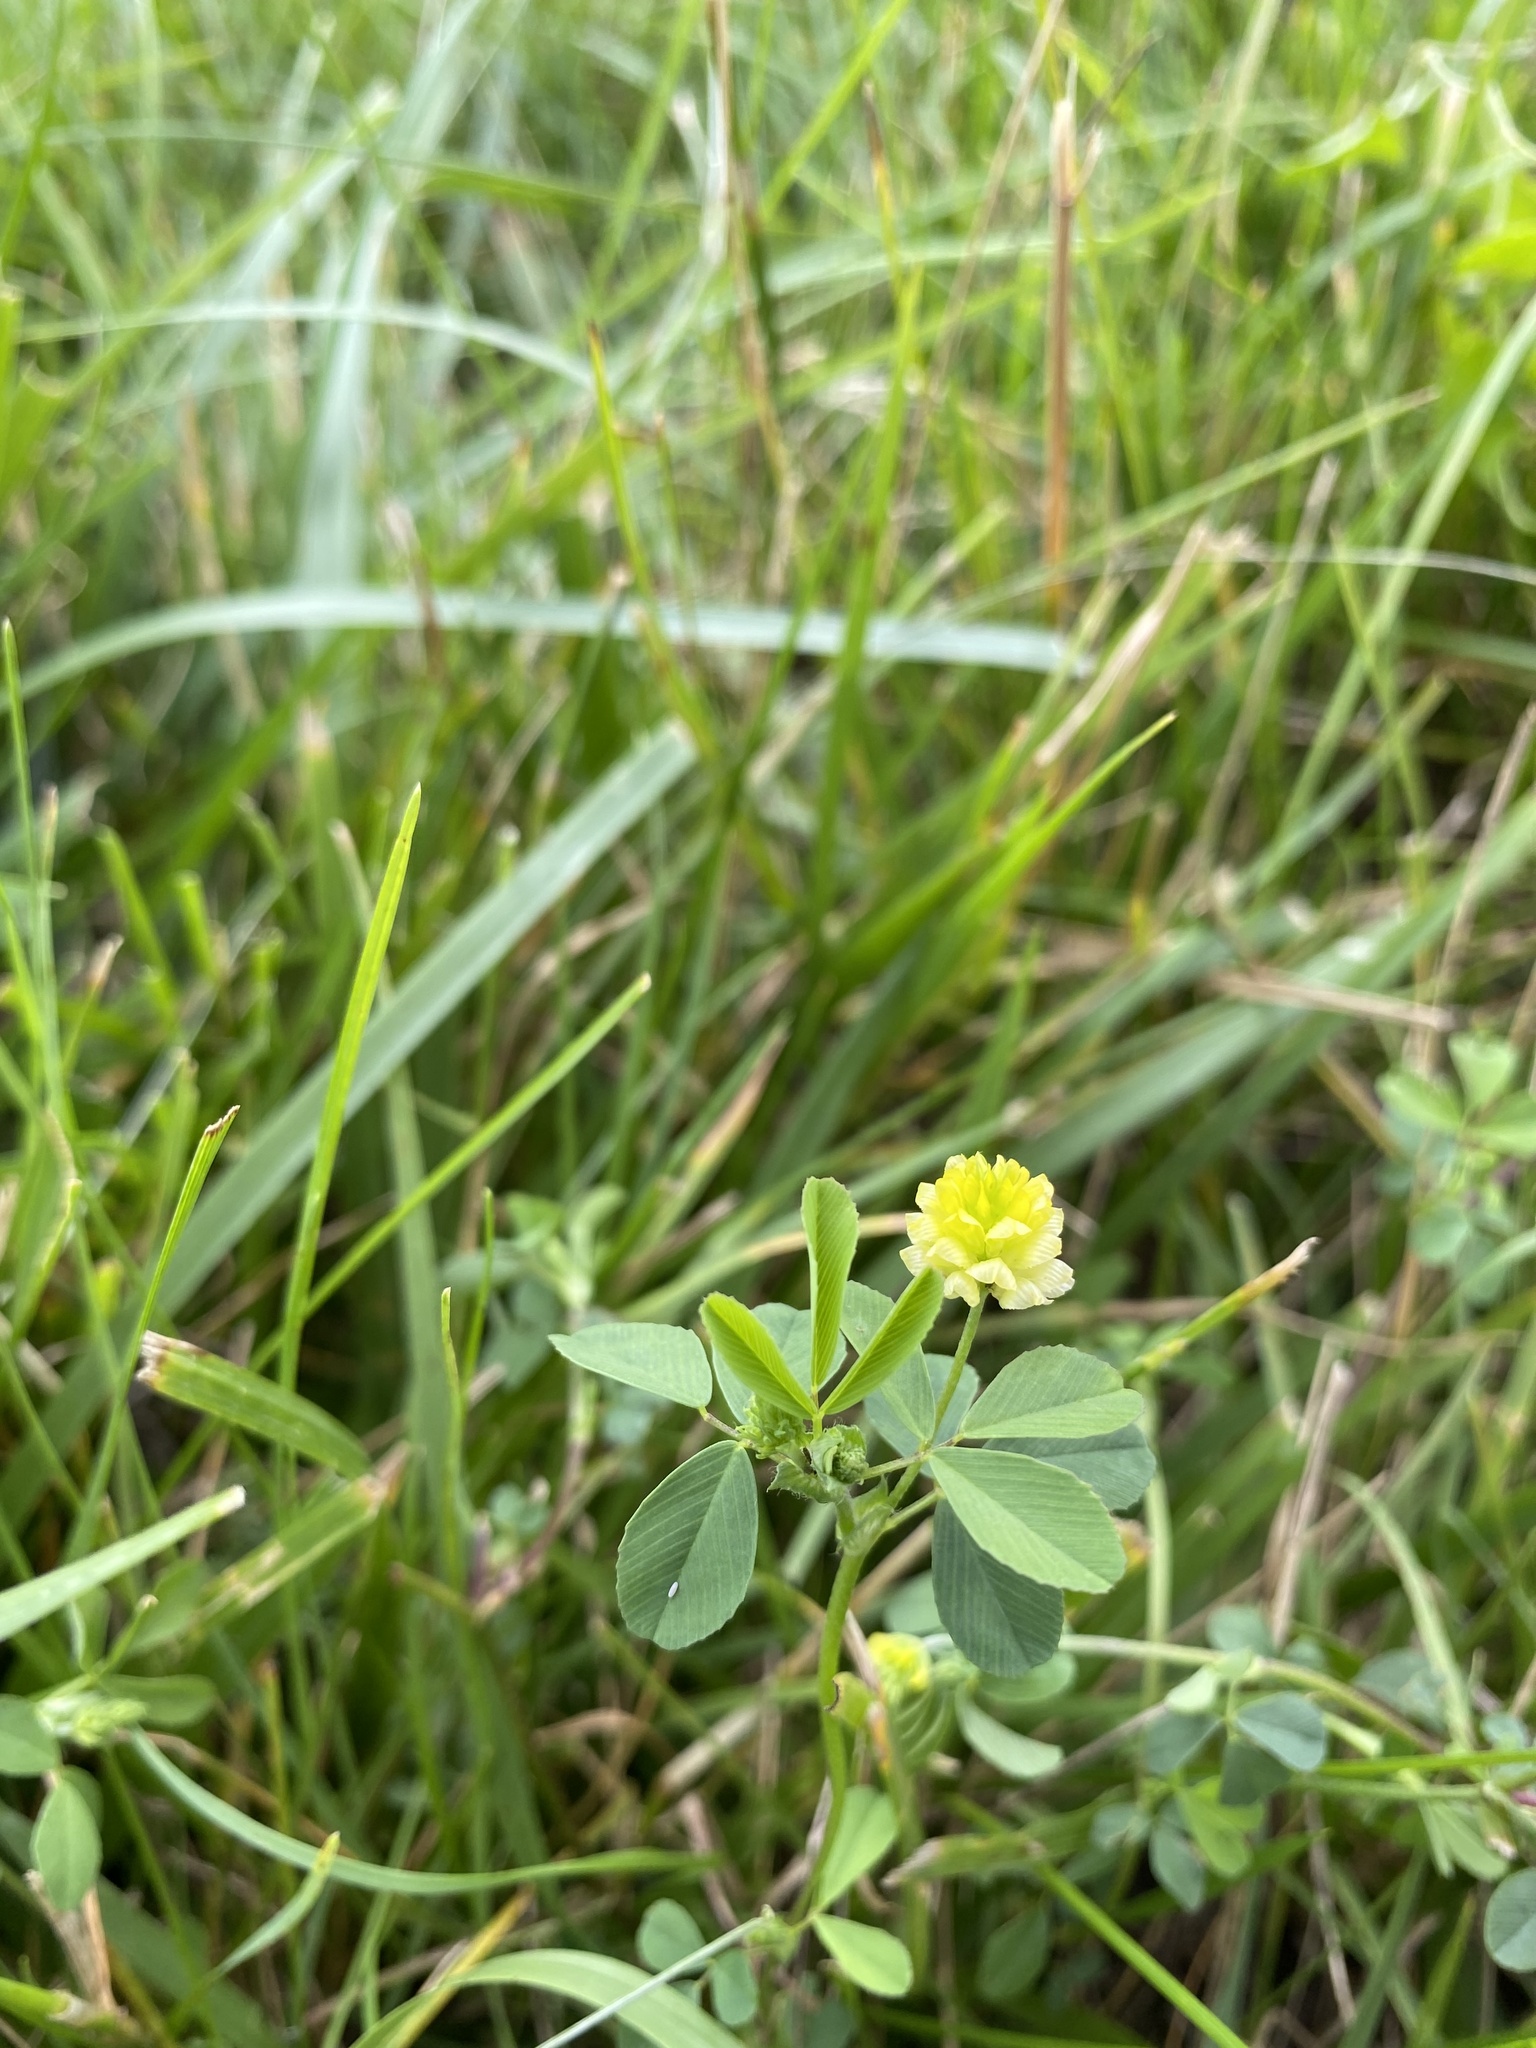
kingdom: Plantae
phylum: Tracheophyta
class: Magnoliopsida
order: Fabales
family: Fabaceae
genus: Trifolium
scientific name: Trifolium campestre
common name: Field clover
